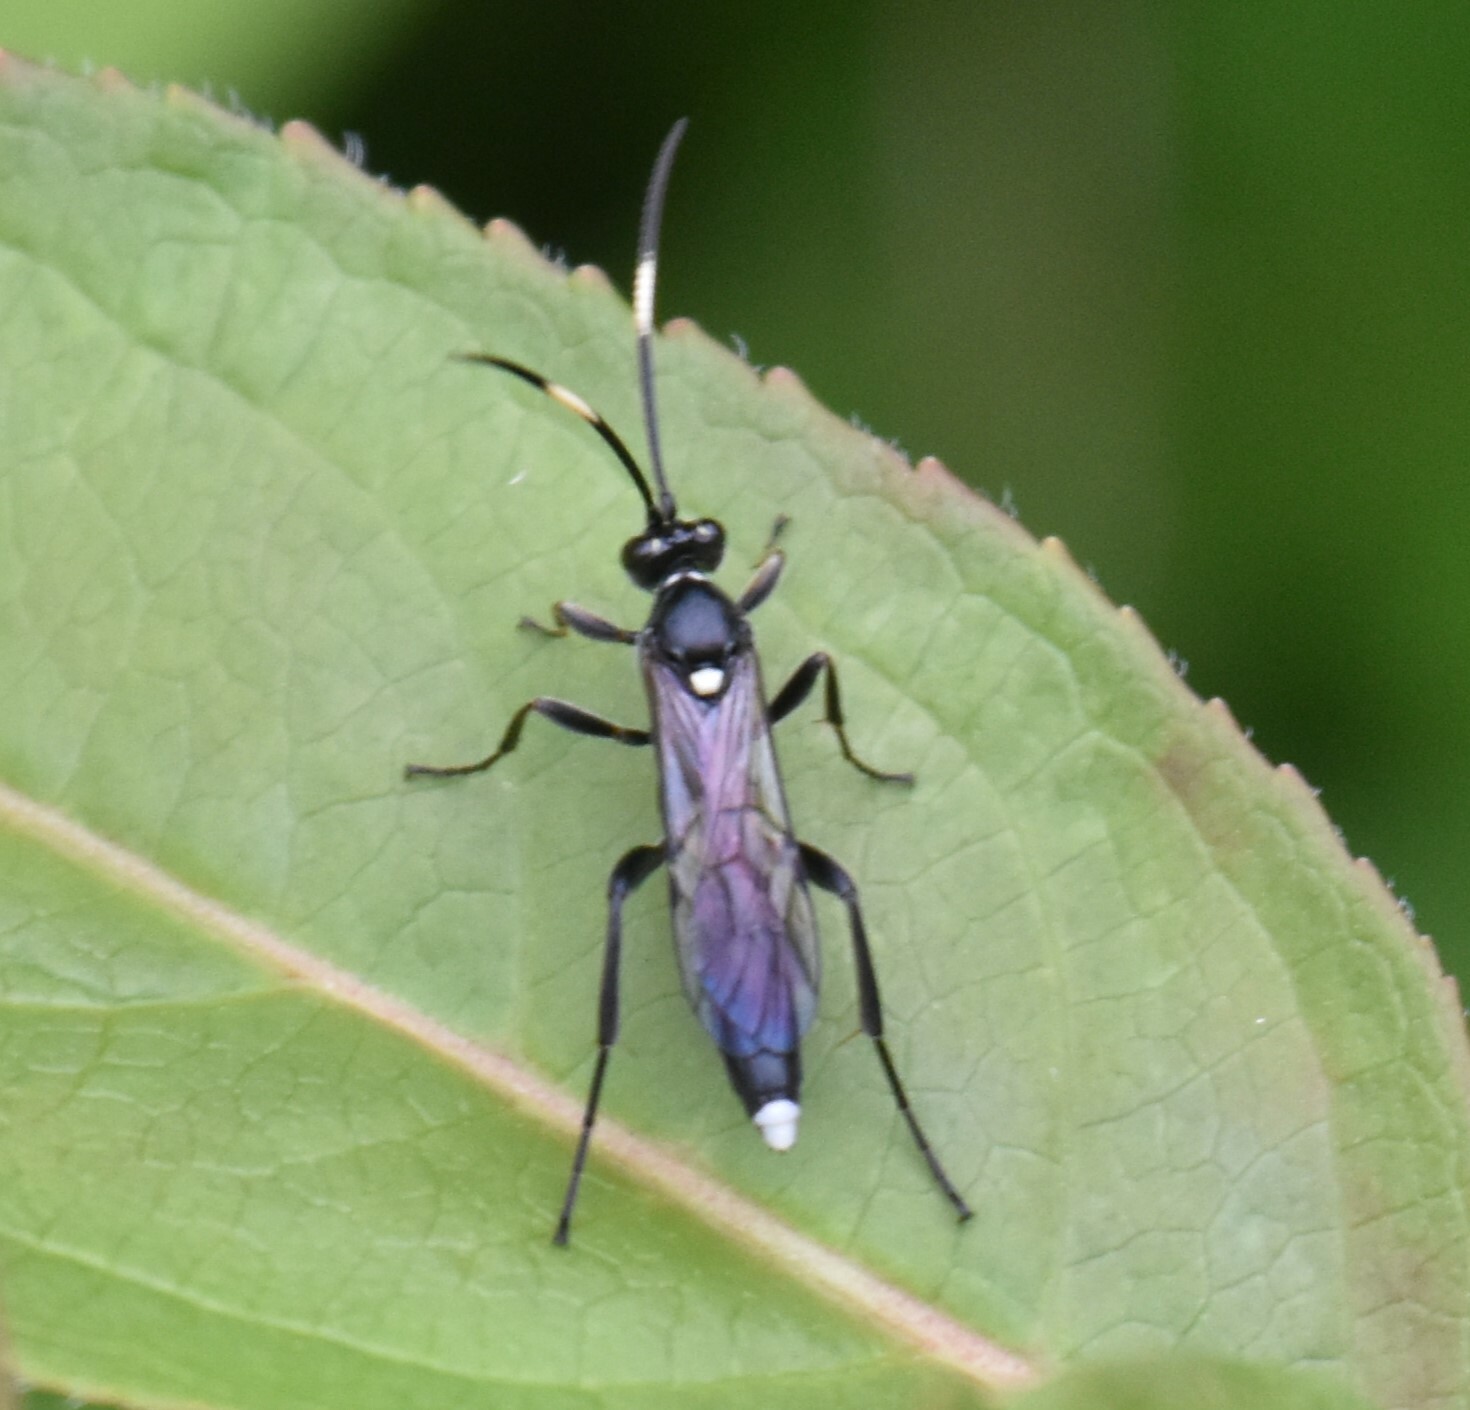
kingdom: Animalia
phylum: Arthropoda
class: Insecta
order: Hymenoptera
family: Ichneumonidae
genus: Vulgichneumon
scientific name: Vulgichneumon brevicinctor
